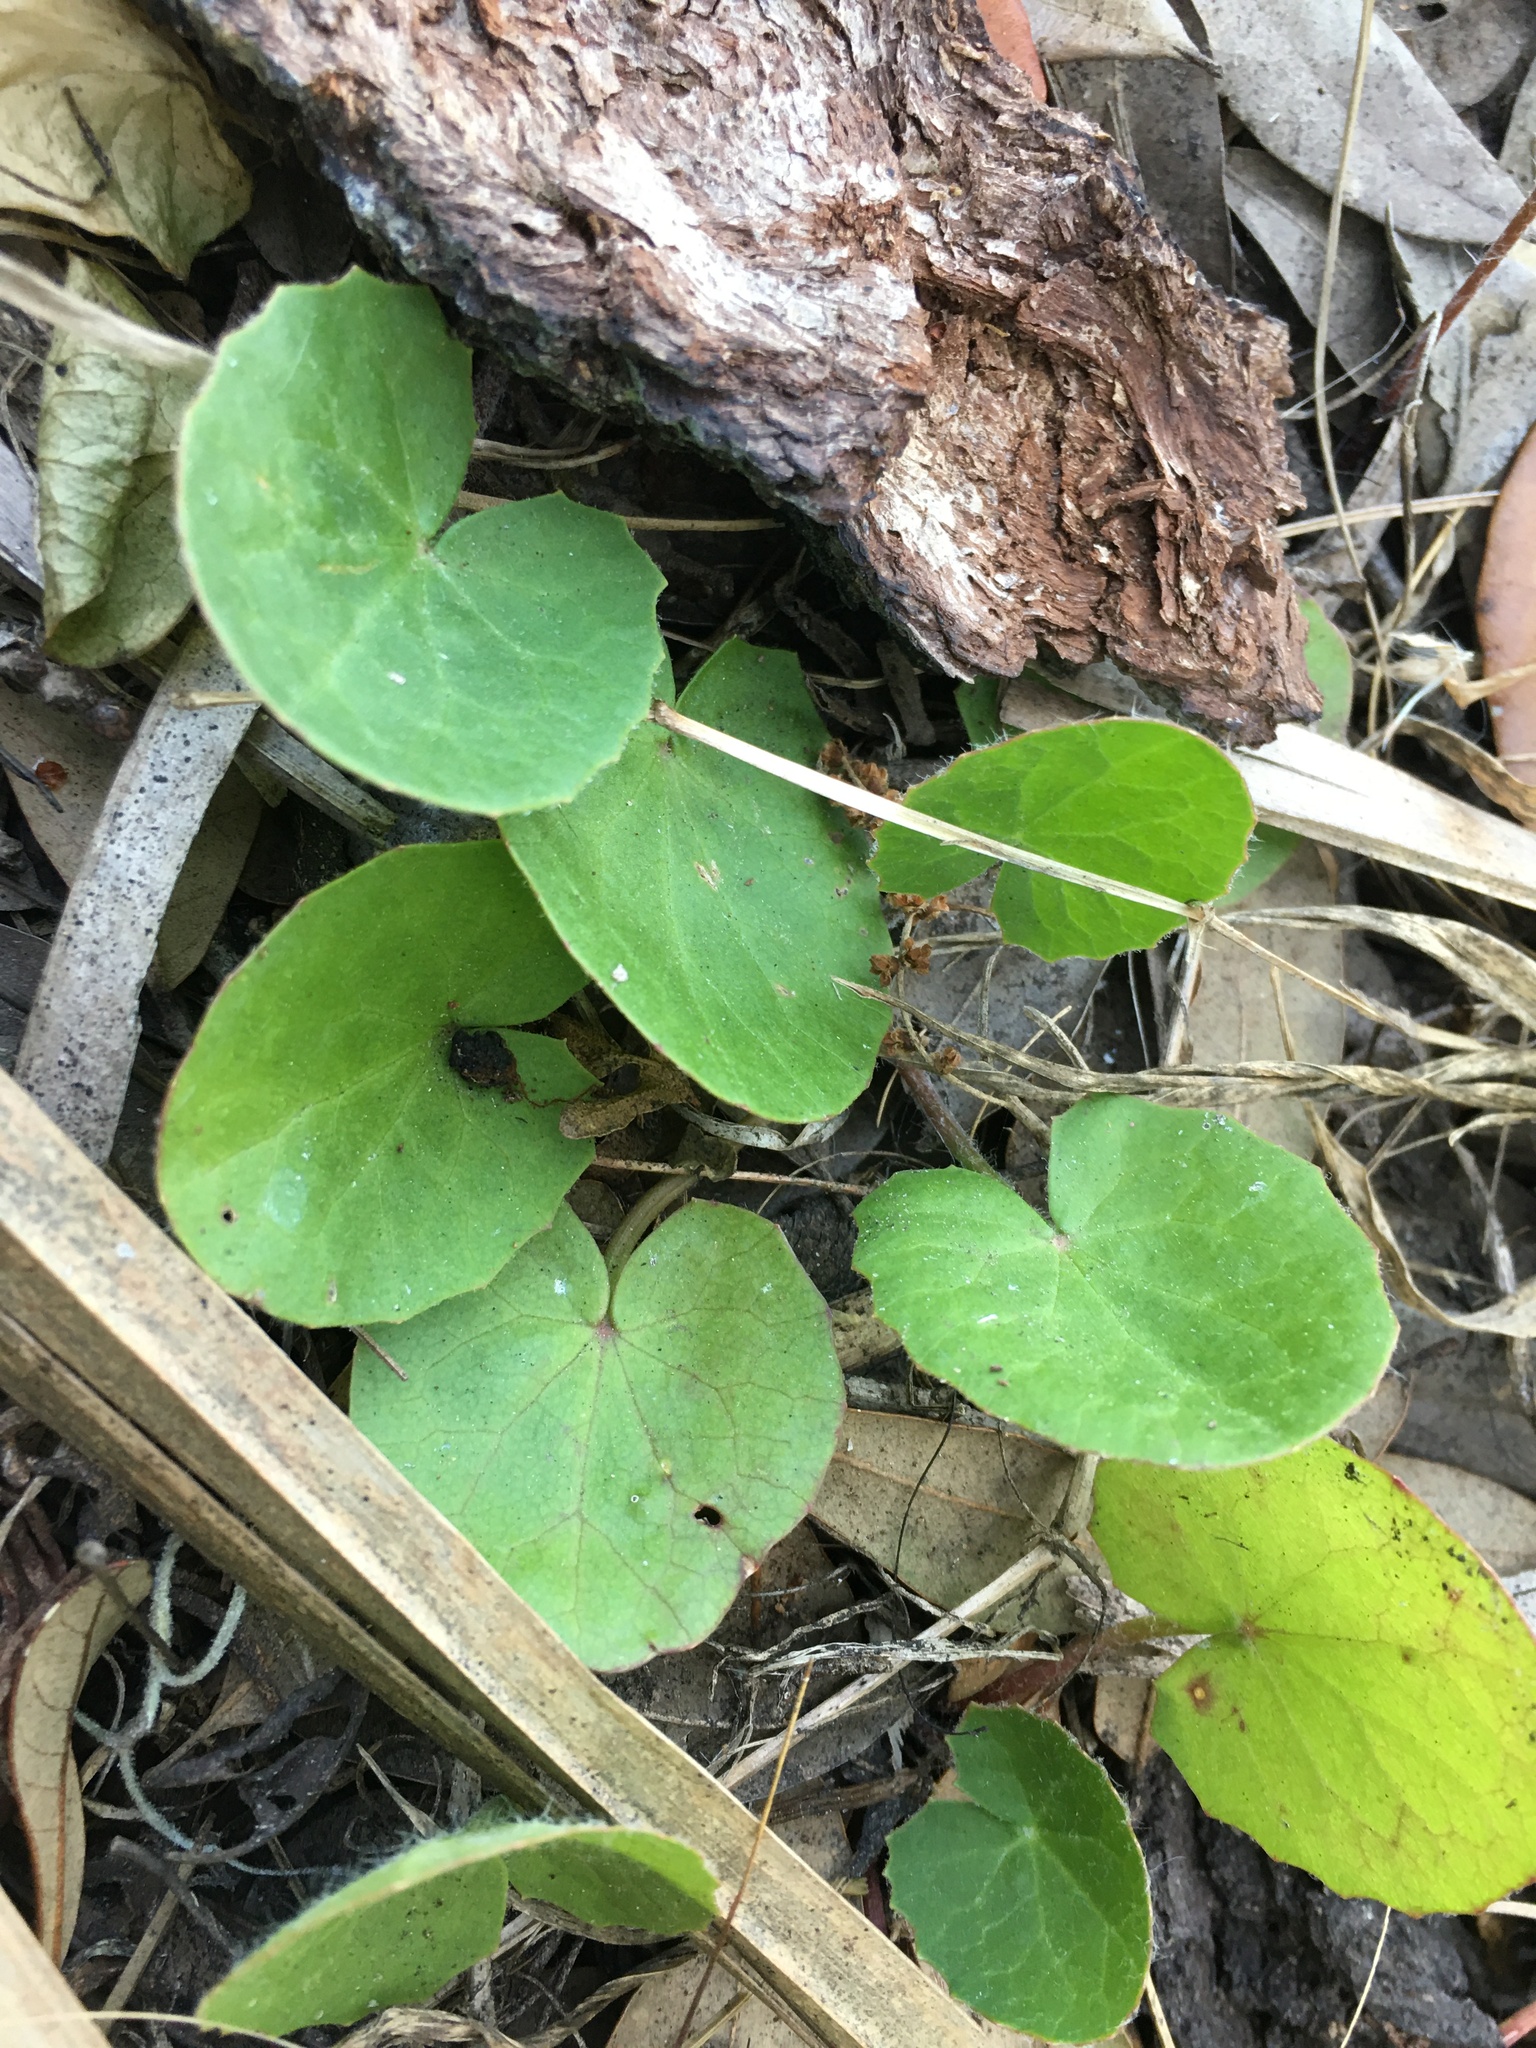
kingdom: Plantae
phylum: Tracheophyta
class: Magnoliopsida
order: Apiales
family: Apiaceae
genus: Centella
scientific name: Centella erecta
